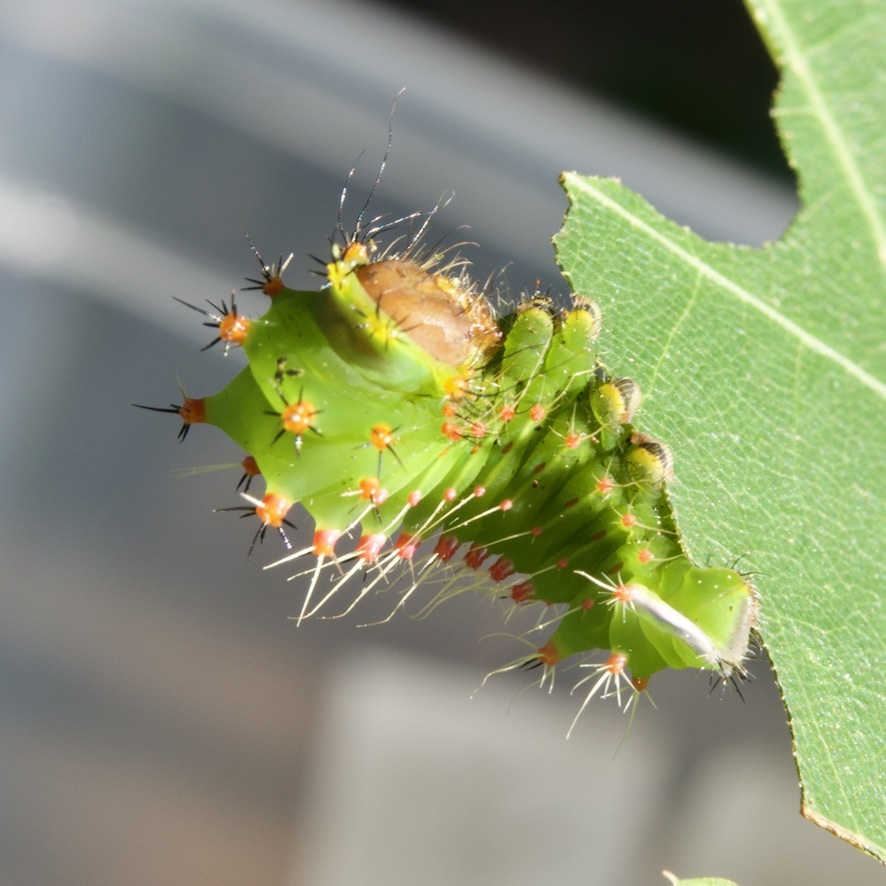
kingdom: Animalia
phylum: Arthropoda
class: Insecta
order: Lepidoptera
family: Saturniidae
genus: Antheraea
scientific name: Antheraea polyphemus
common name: Polyphemus moth
